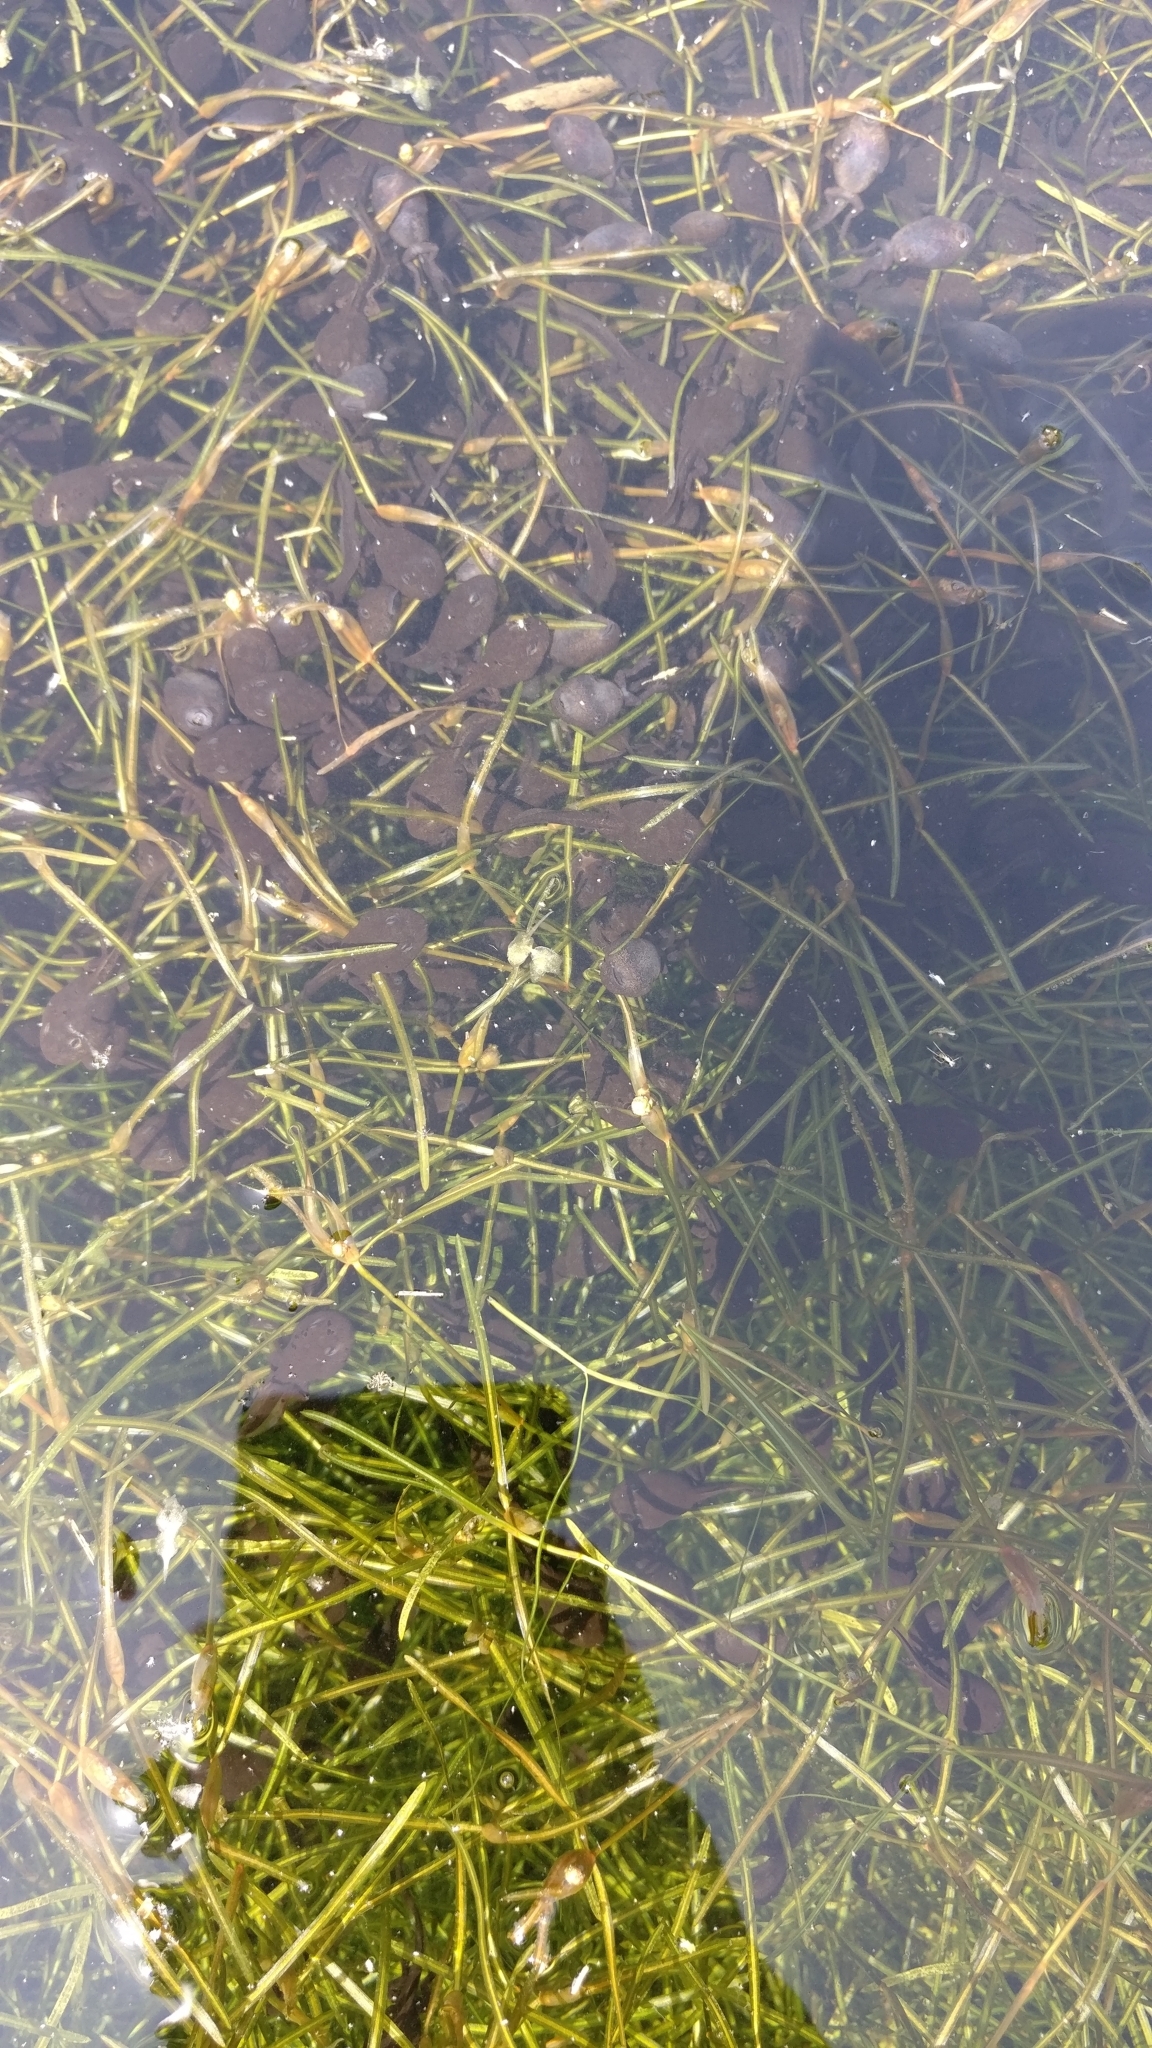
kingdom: Animalia
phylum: Chordata
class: Amphibia
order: Anura
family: Bufonidae
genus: Bufo
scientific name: Bufo bufo
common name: Common toad
